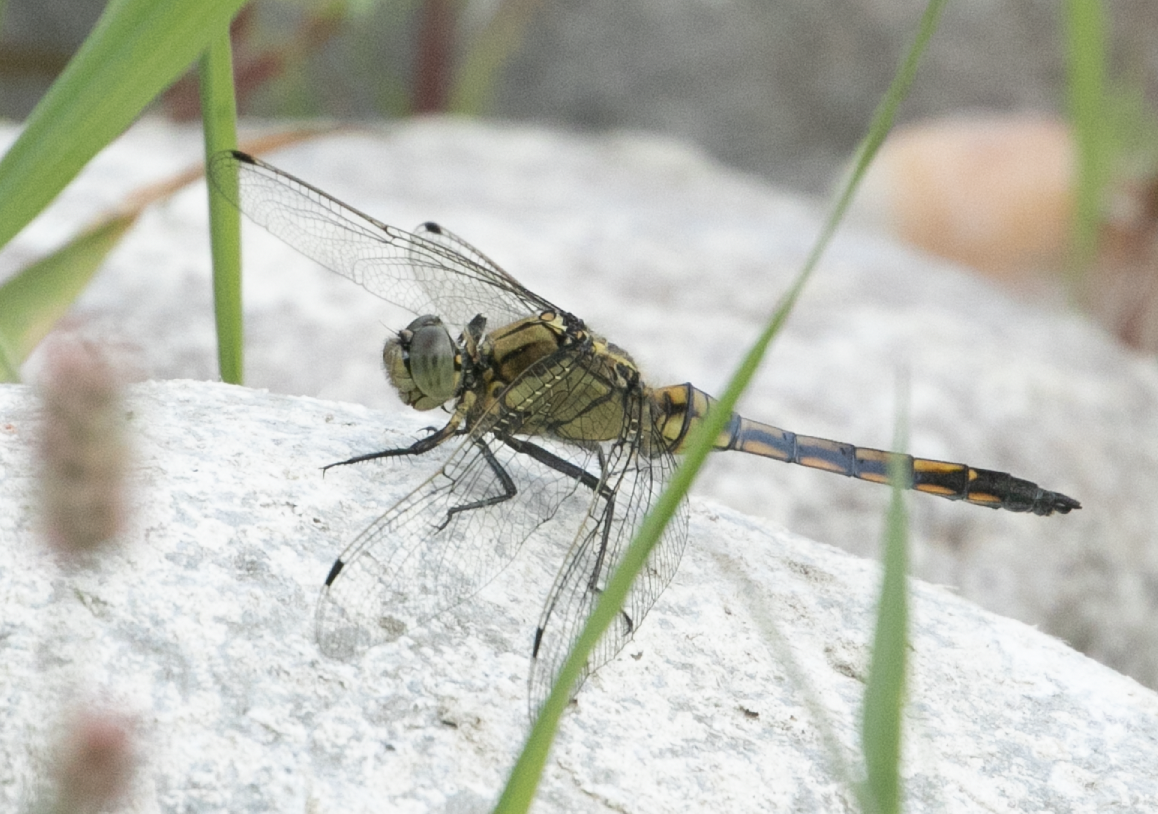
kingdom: Animalia
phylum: Arthropoda
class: Insecta
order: Odonata
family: Libellulidae
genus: Orthetrum
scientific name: Orthetrum cancellatum
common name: Black-tailed skimmer
